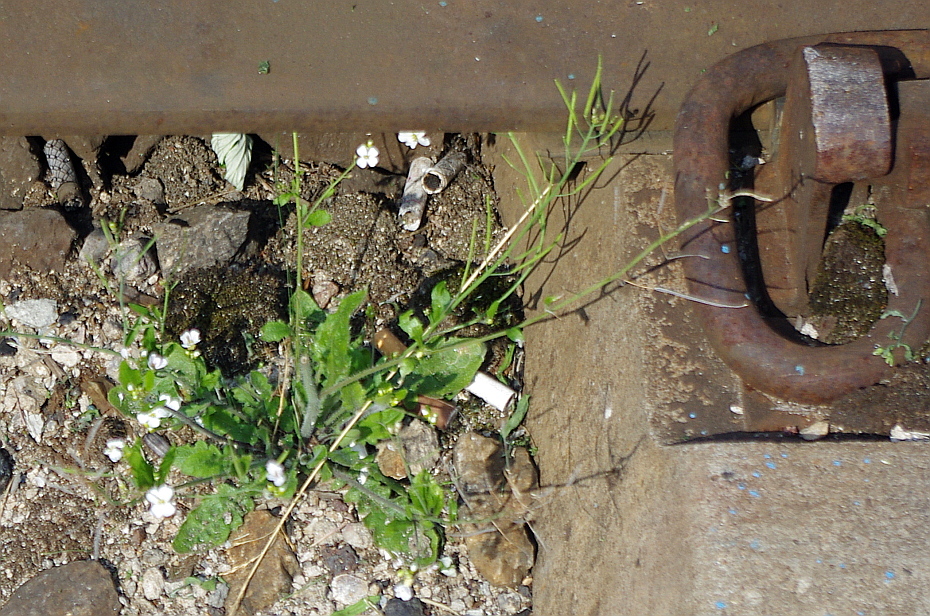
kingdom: Plantae
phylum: Tracheophyta
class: Magnoliopsida
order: Brassicales
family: Brassicaceae
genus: Arabidopsis
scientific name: Arabidopsis arenosa
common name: Sand rock-cress
